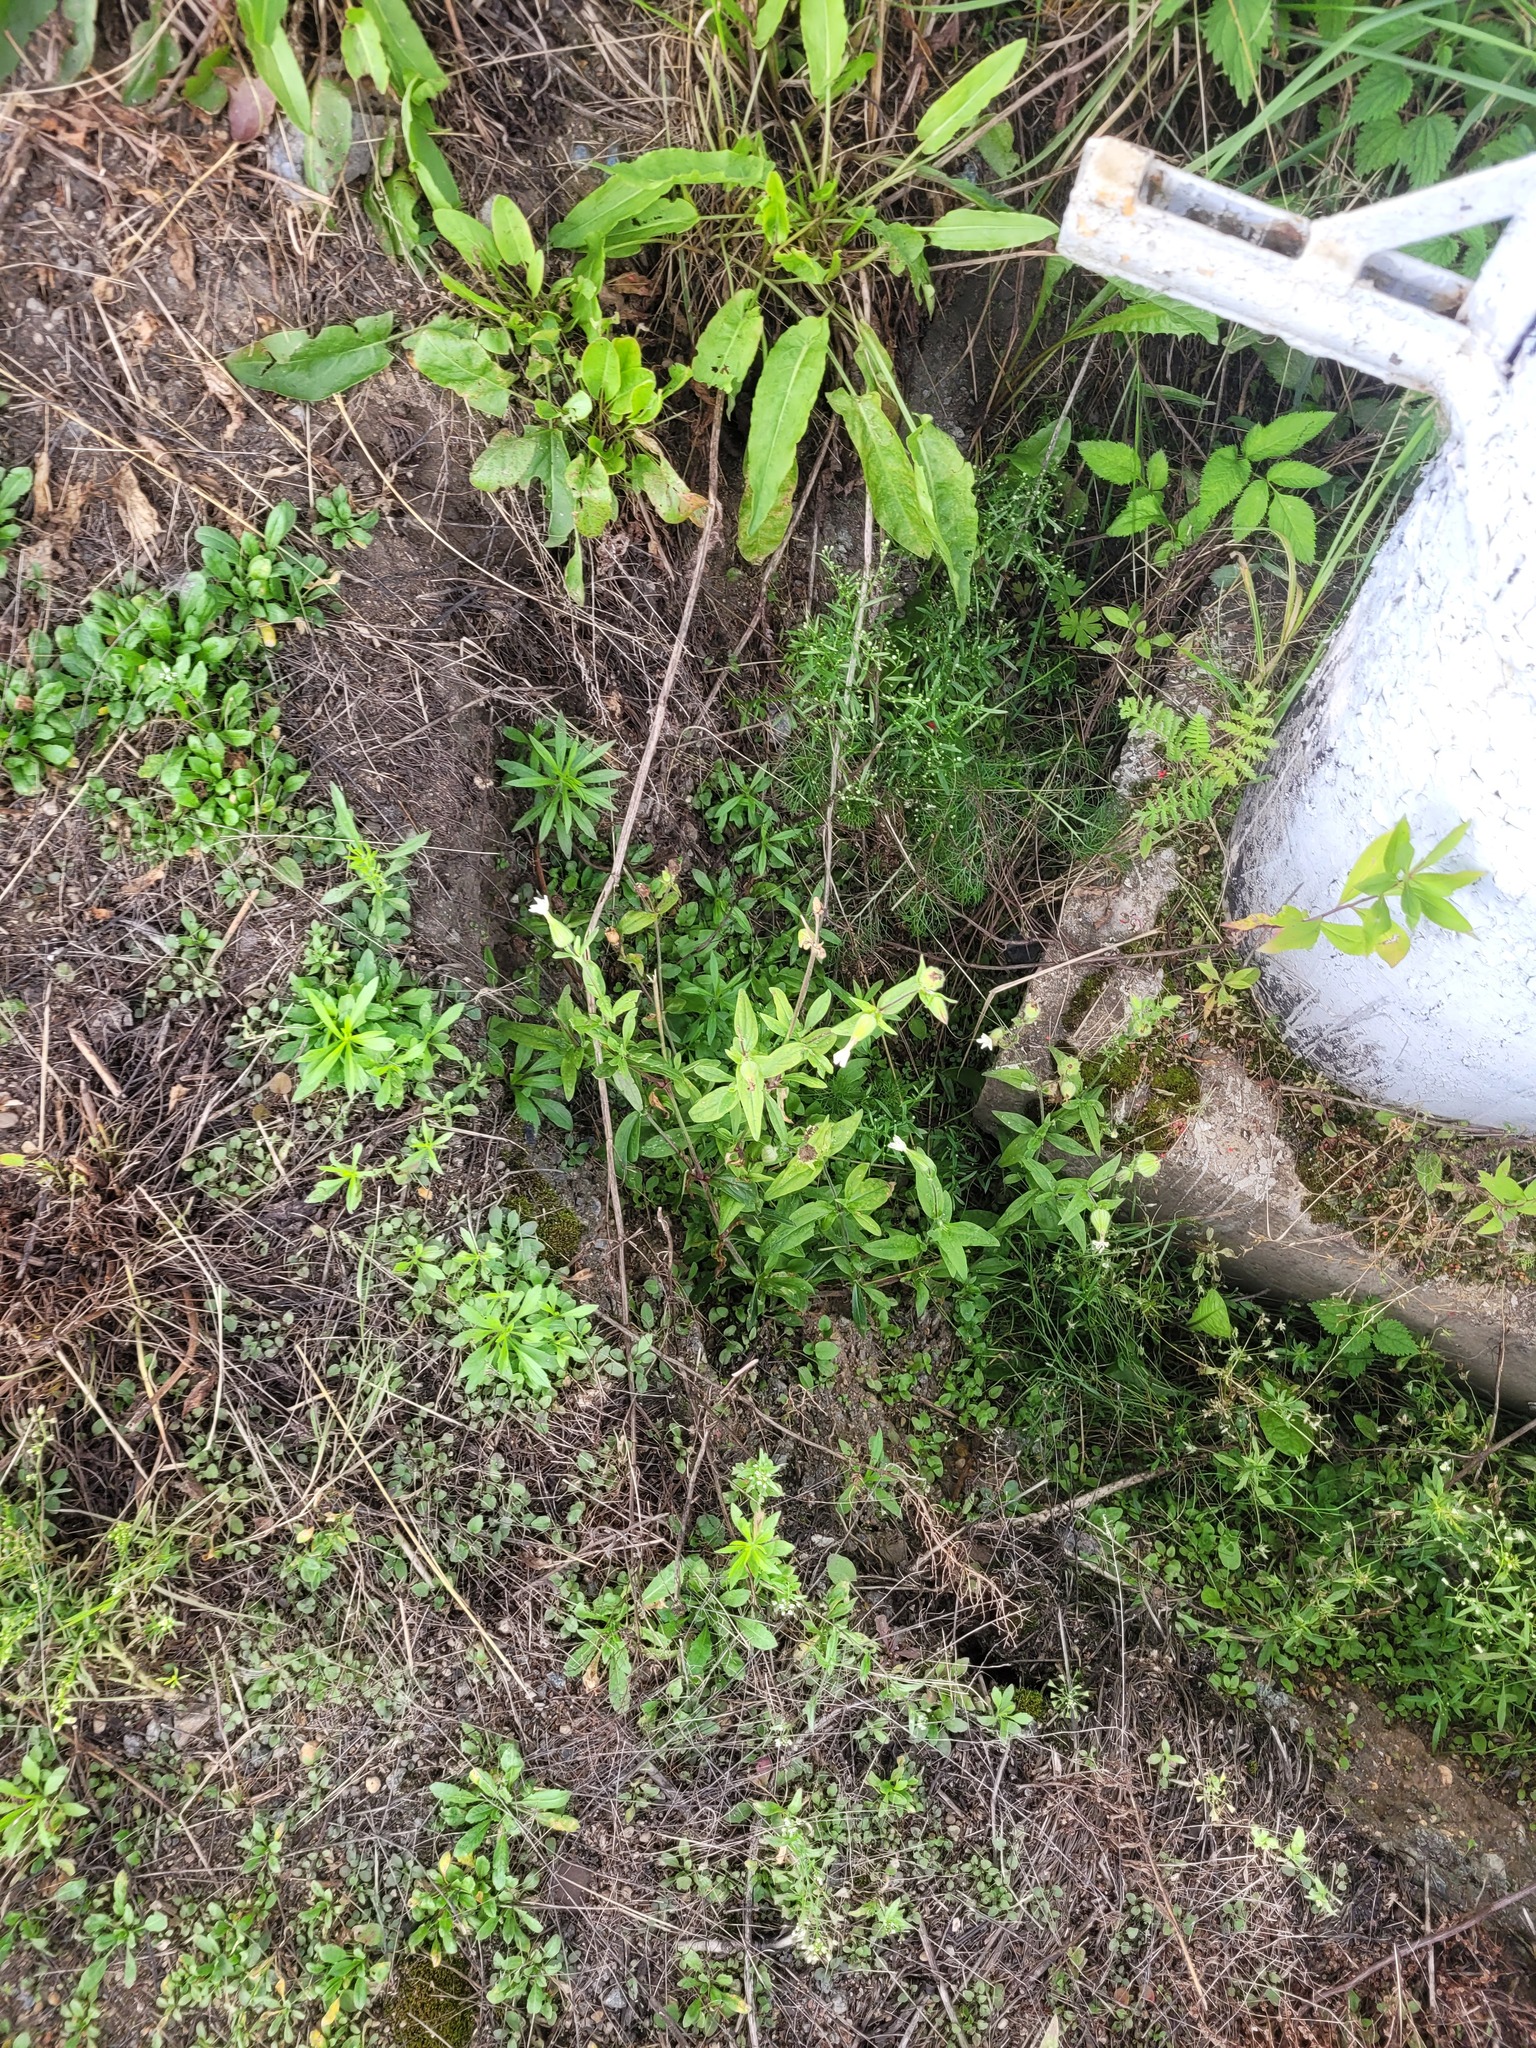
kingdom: Plantae
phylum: Tracheophyta
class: Magnoliopsida
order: Caryophyllales
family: Caryophyllaceae
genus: Silene
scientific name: Silene latifolia
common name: White campion
